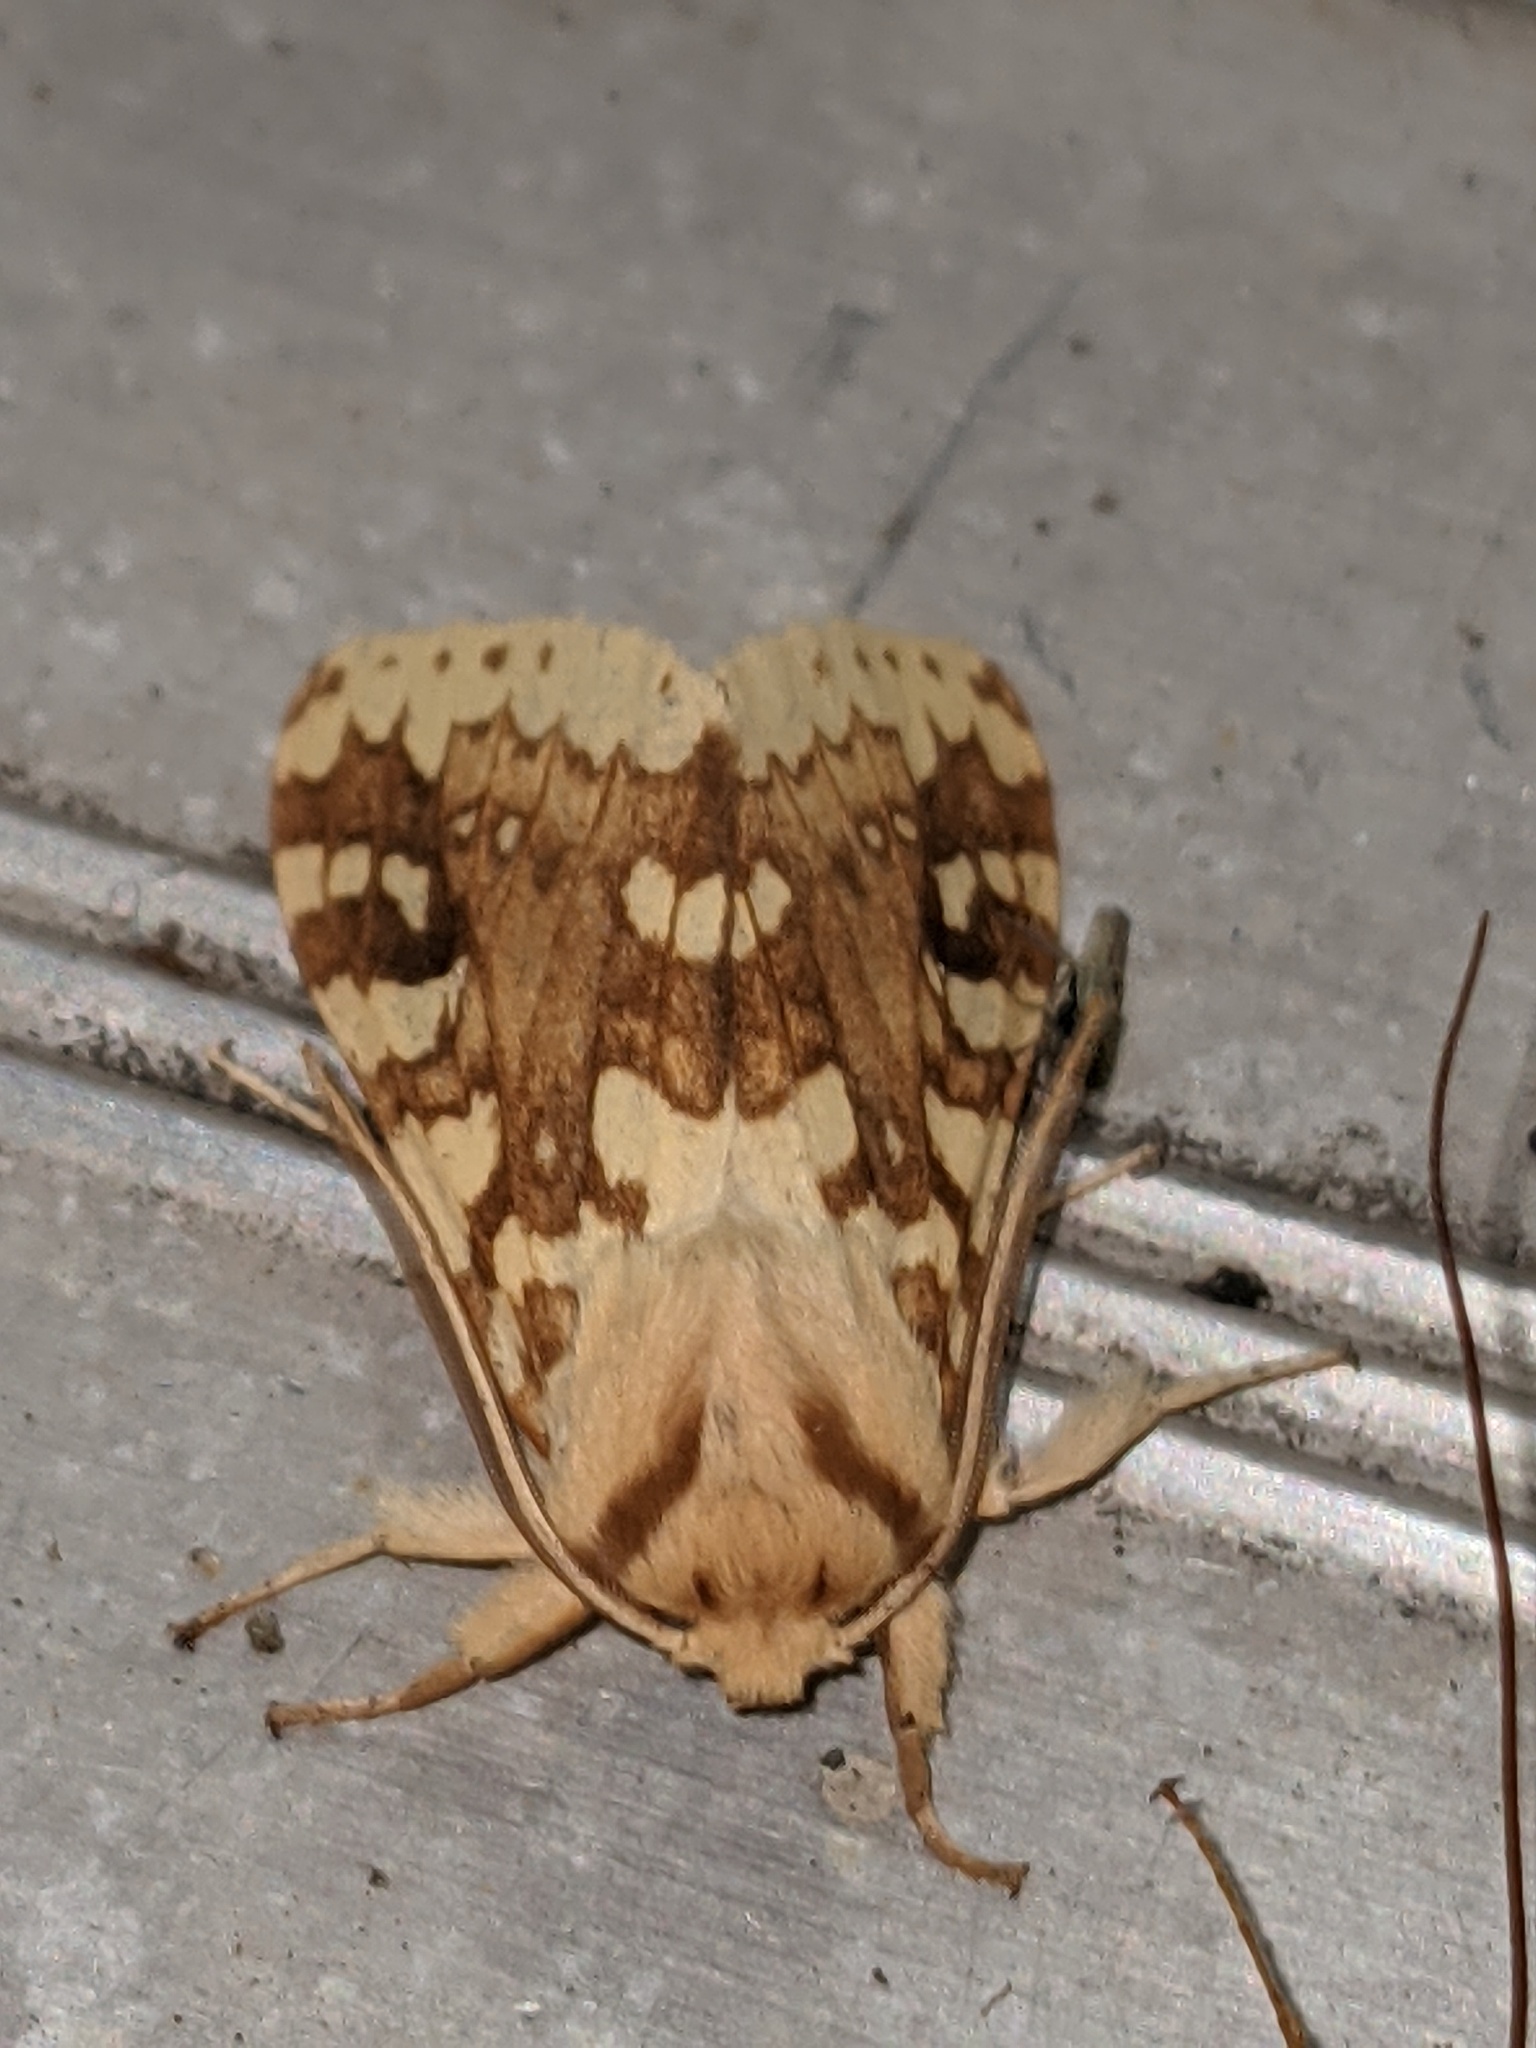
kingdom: Animalia
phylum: Arthropoda
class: Insecta
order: Lepidoptera
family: Erebidae
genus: Lophocampa
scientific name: Lophocampa maculata
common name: Spotted tussock moth
